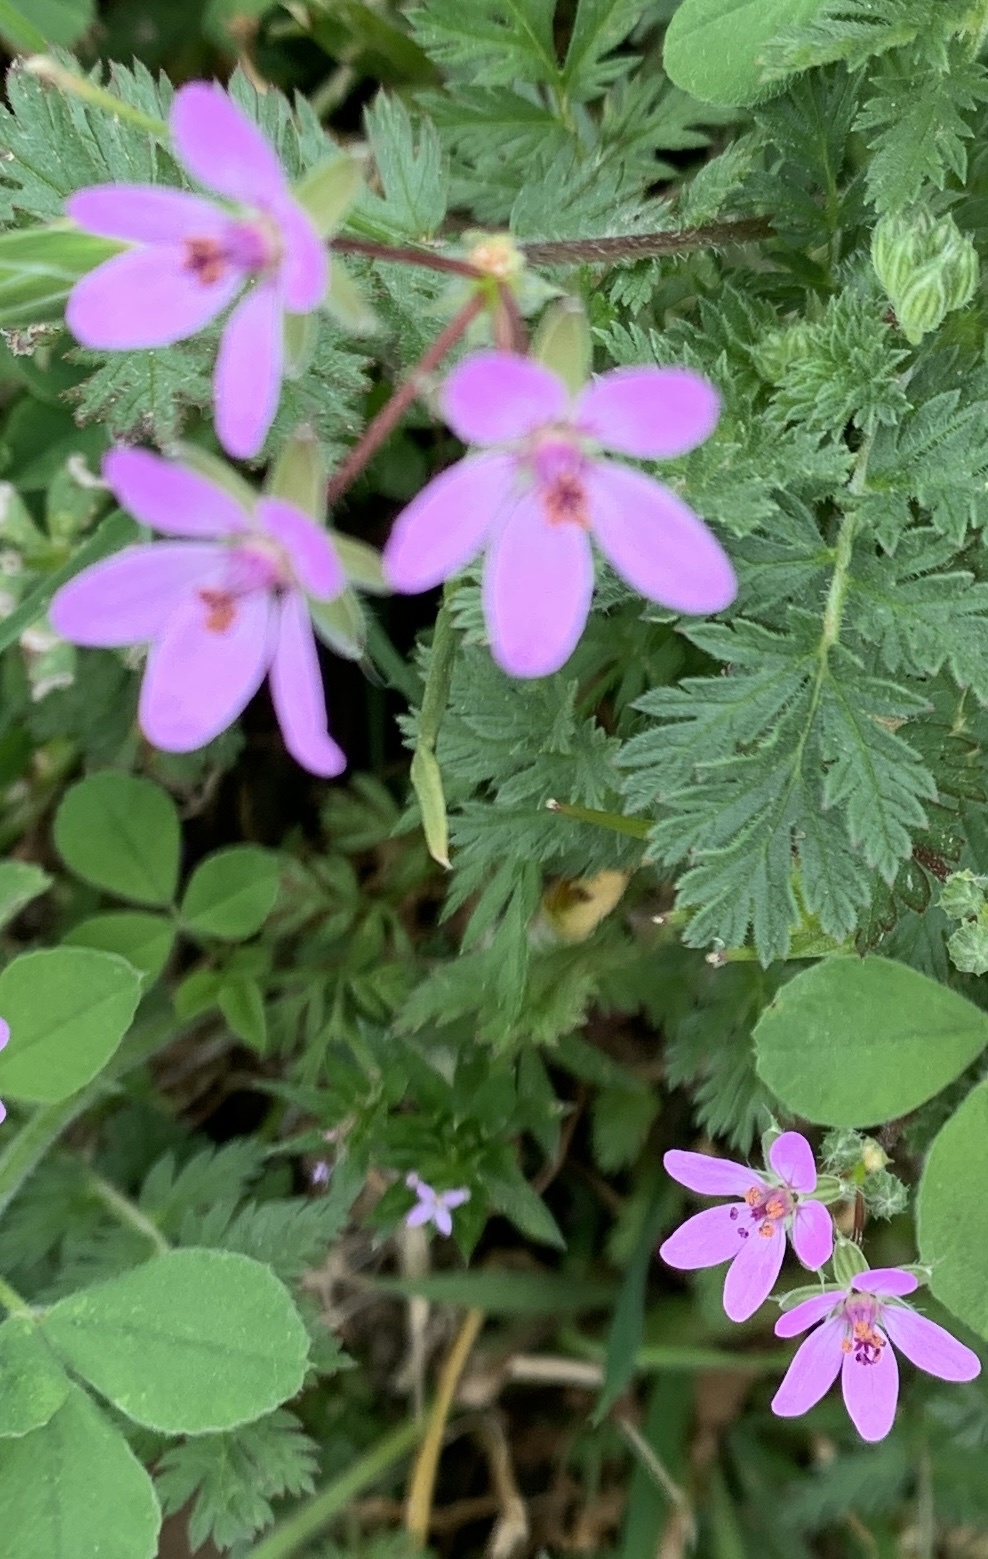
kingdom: Plantae
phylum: Tracheophyta
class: Magnoliopsida
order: Geraniales
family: Geraniaceae
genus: Erodium
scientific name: Erodium cicutarium
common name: Common stork's-bill
